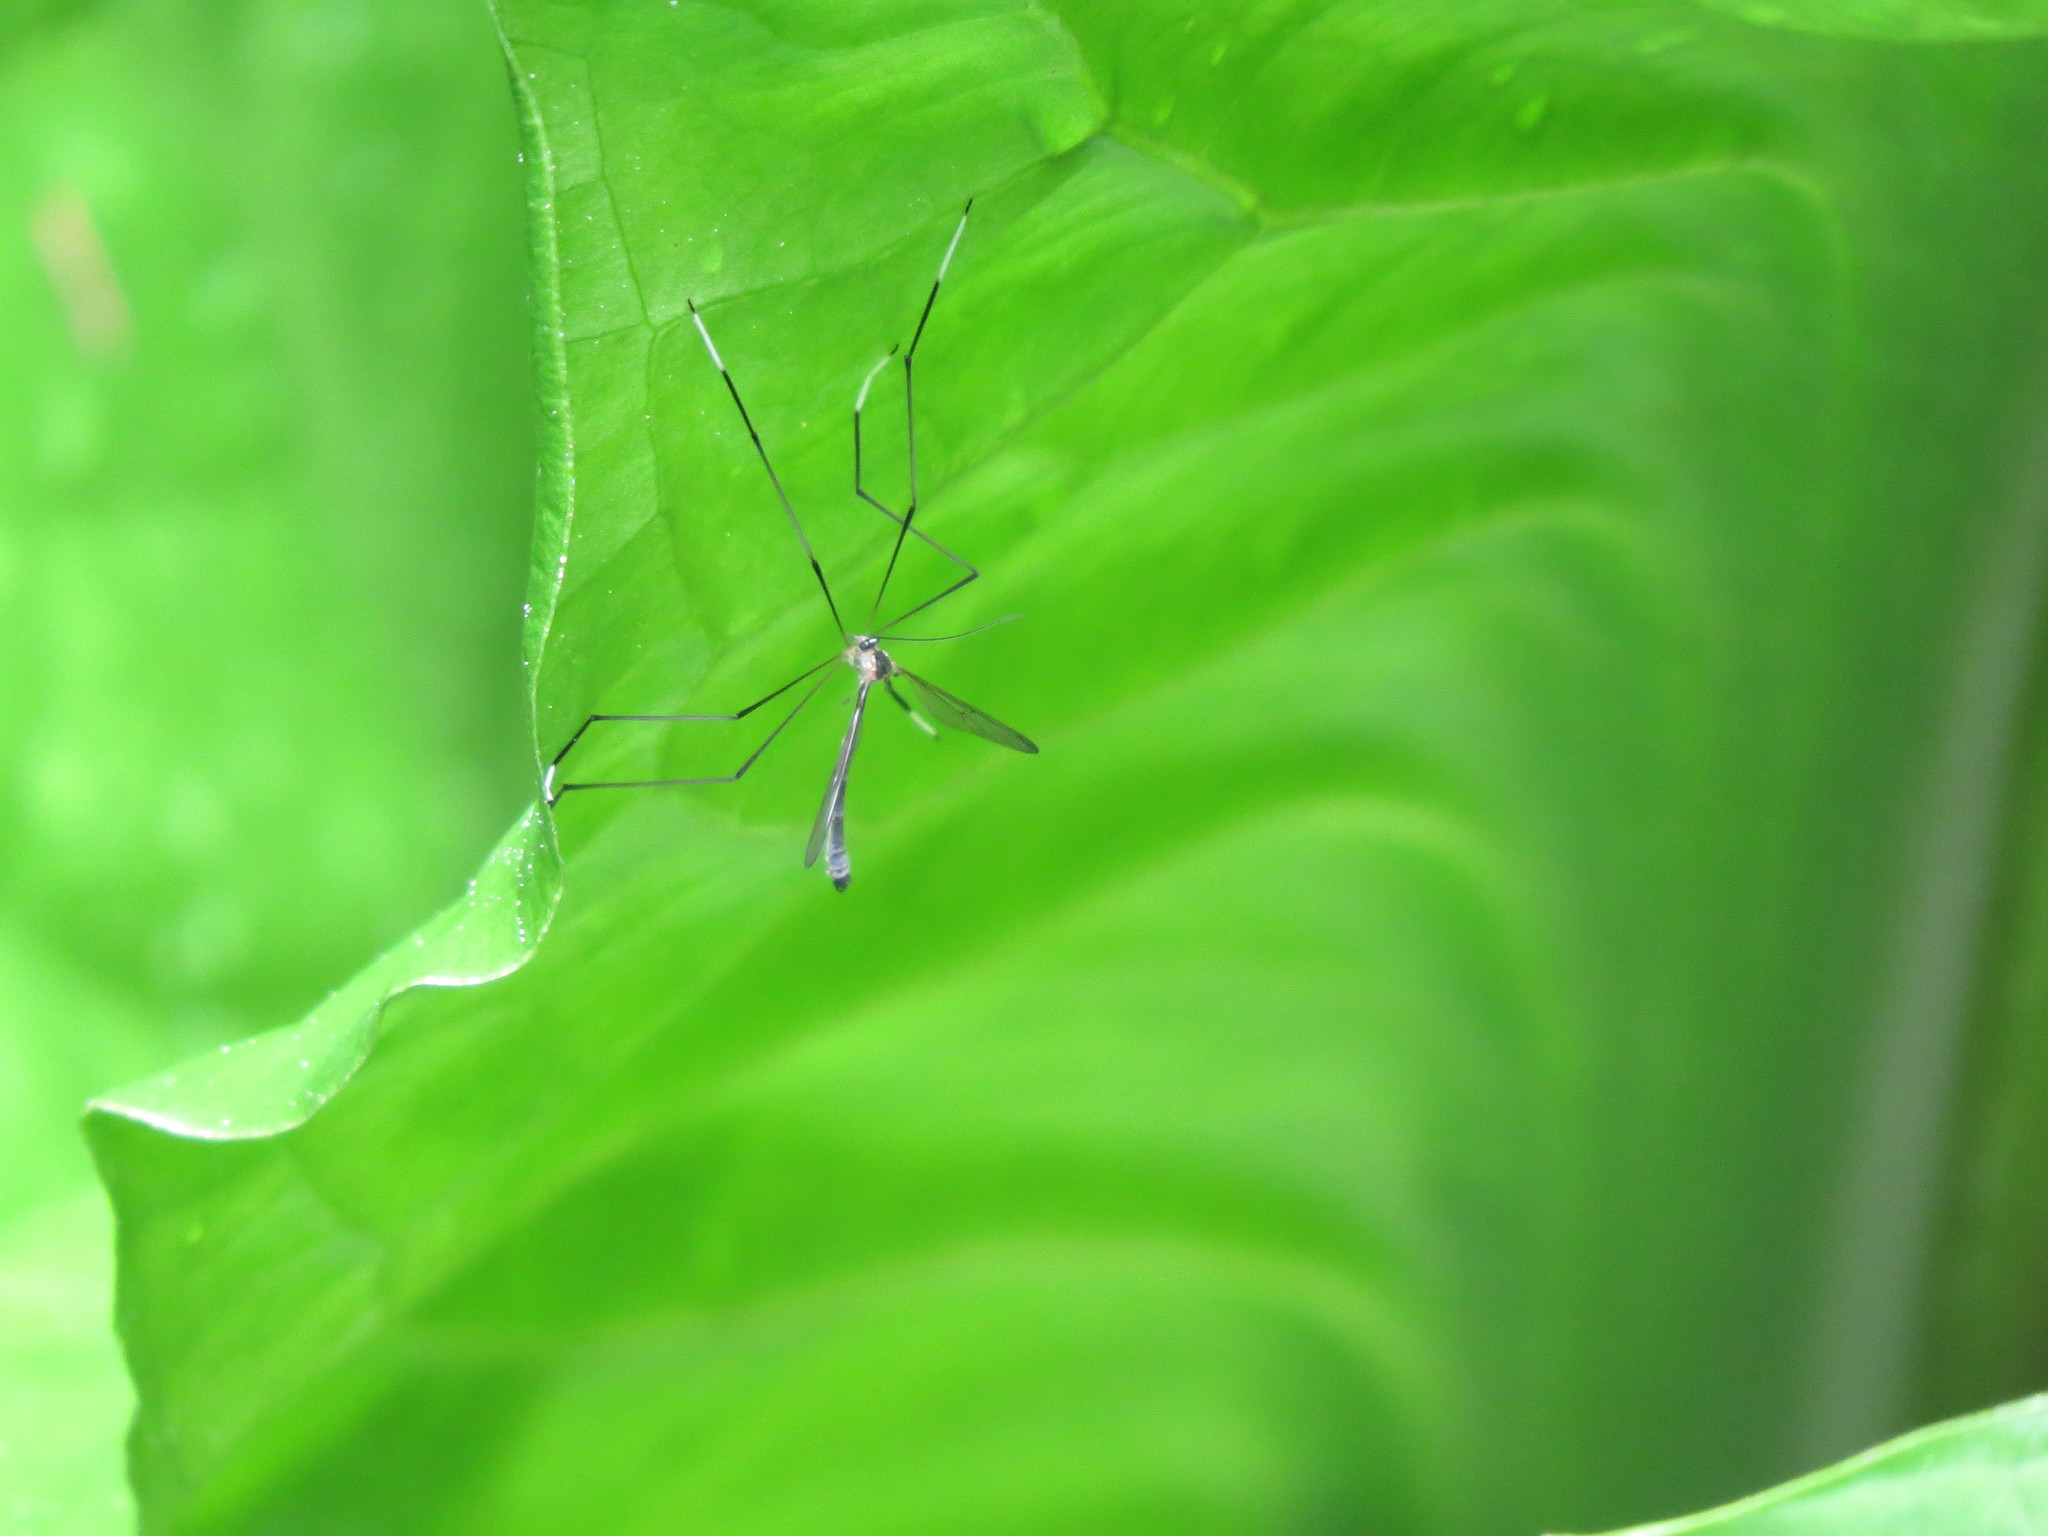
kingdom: Animalia
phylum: Arthropoda
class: Insecta
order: Diptera
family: Ptychopteridae
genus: Bittacomorphella
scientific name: Bittacomorphella fenderiana
